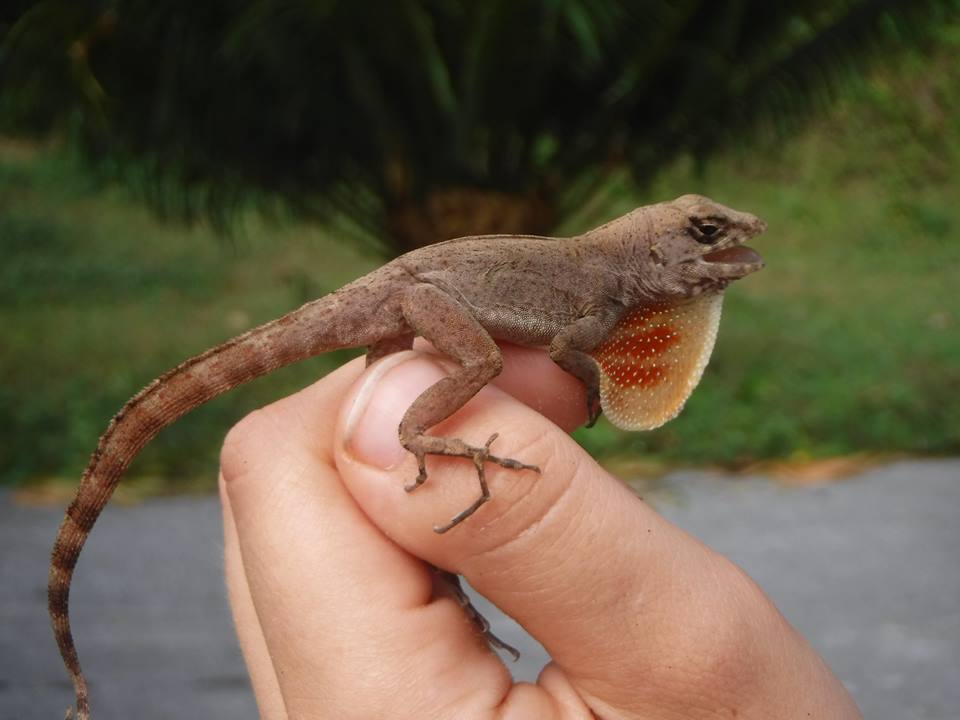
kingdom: Animalia
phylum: Chordata
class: Squamata
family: Dactyloidae
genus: Anolis
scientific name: Anolis allogus
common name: Bueycito anole
